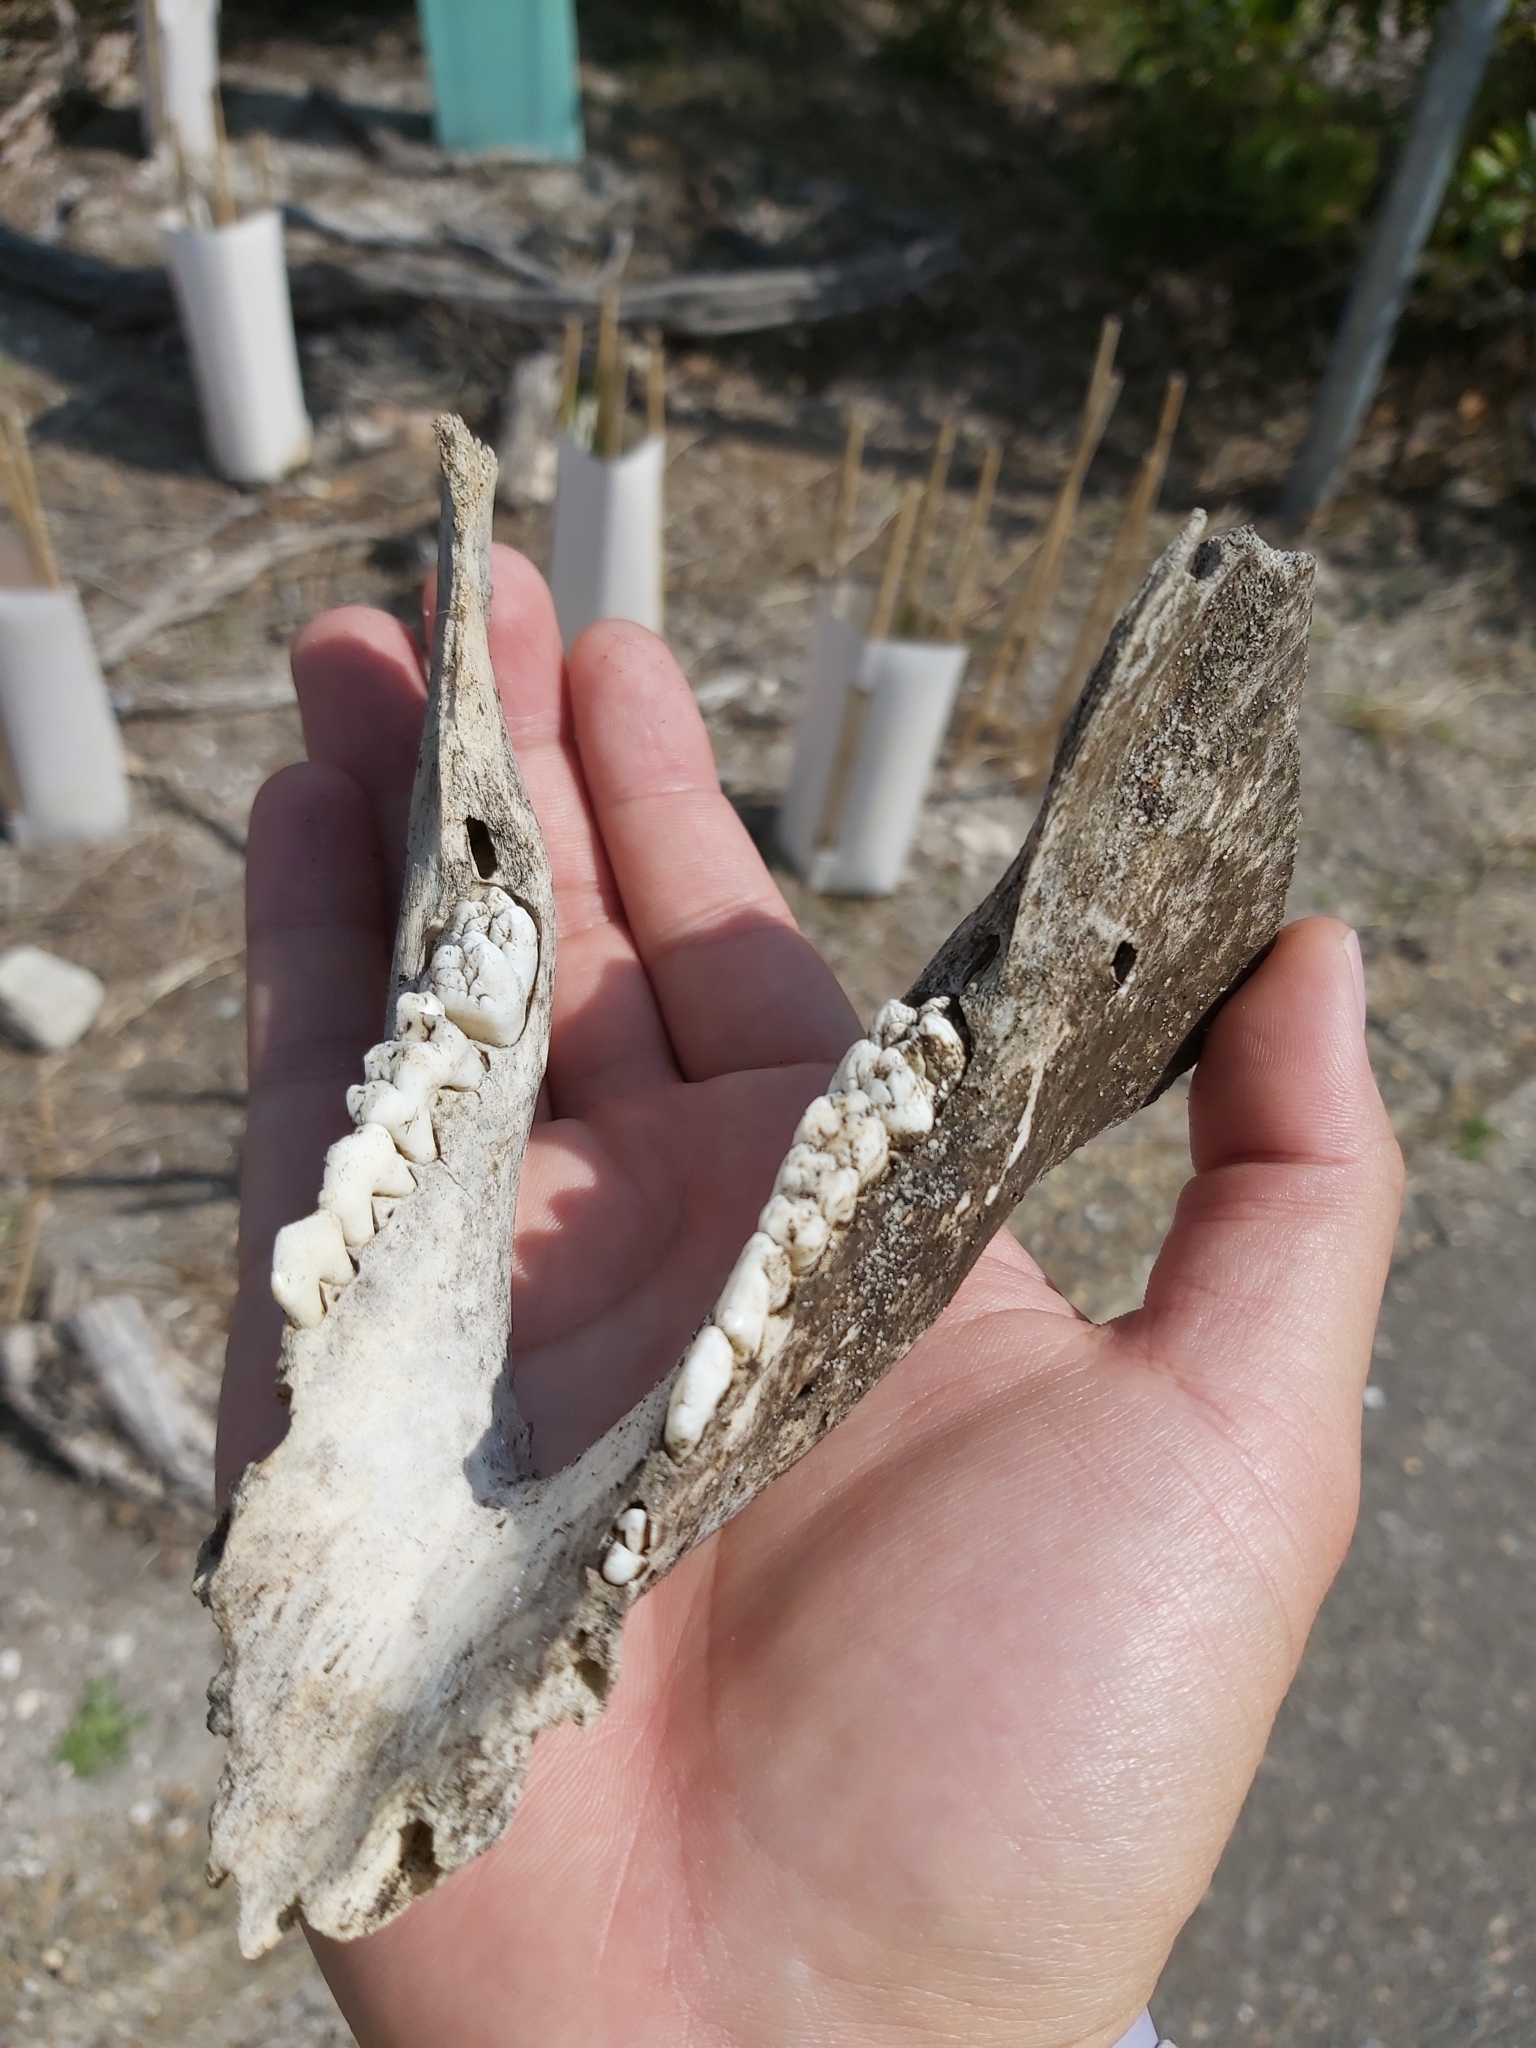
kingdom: Animalia
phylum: Chordata
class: Mammalia
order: Artiodactyla
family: Suidae
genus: Sus
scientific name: Sus scrofa
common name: Wild boar
